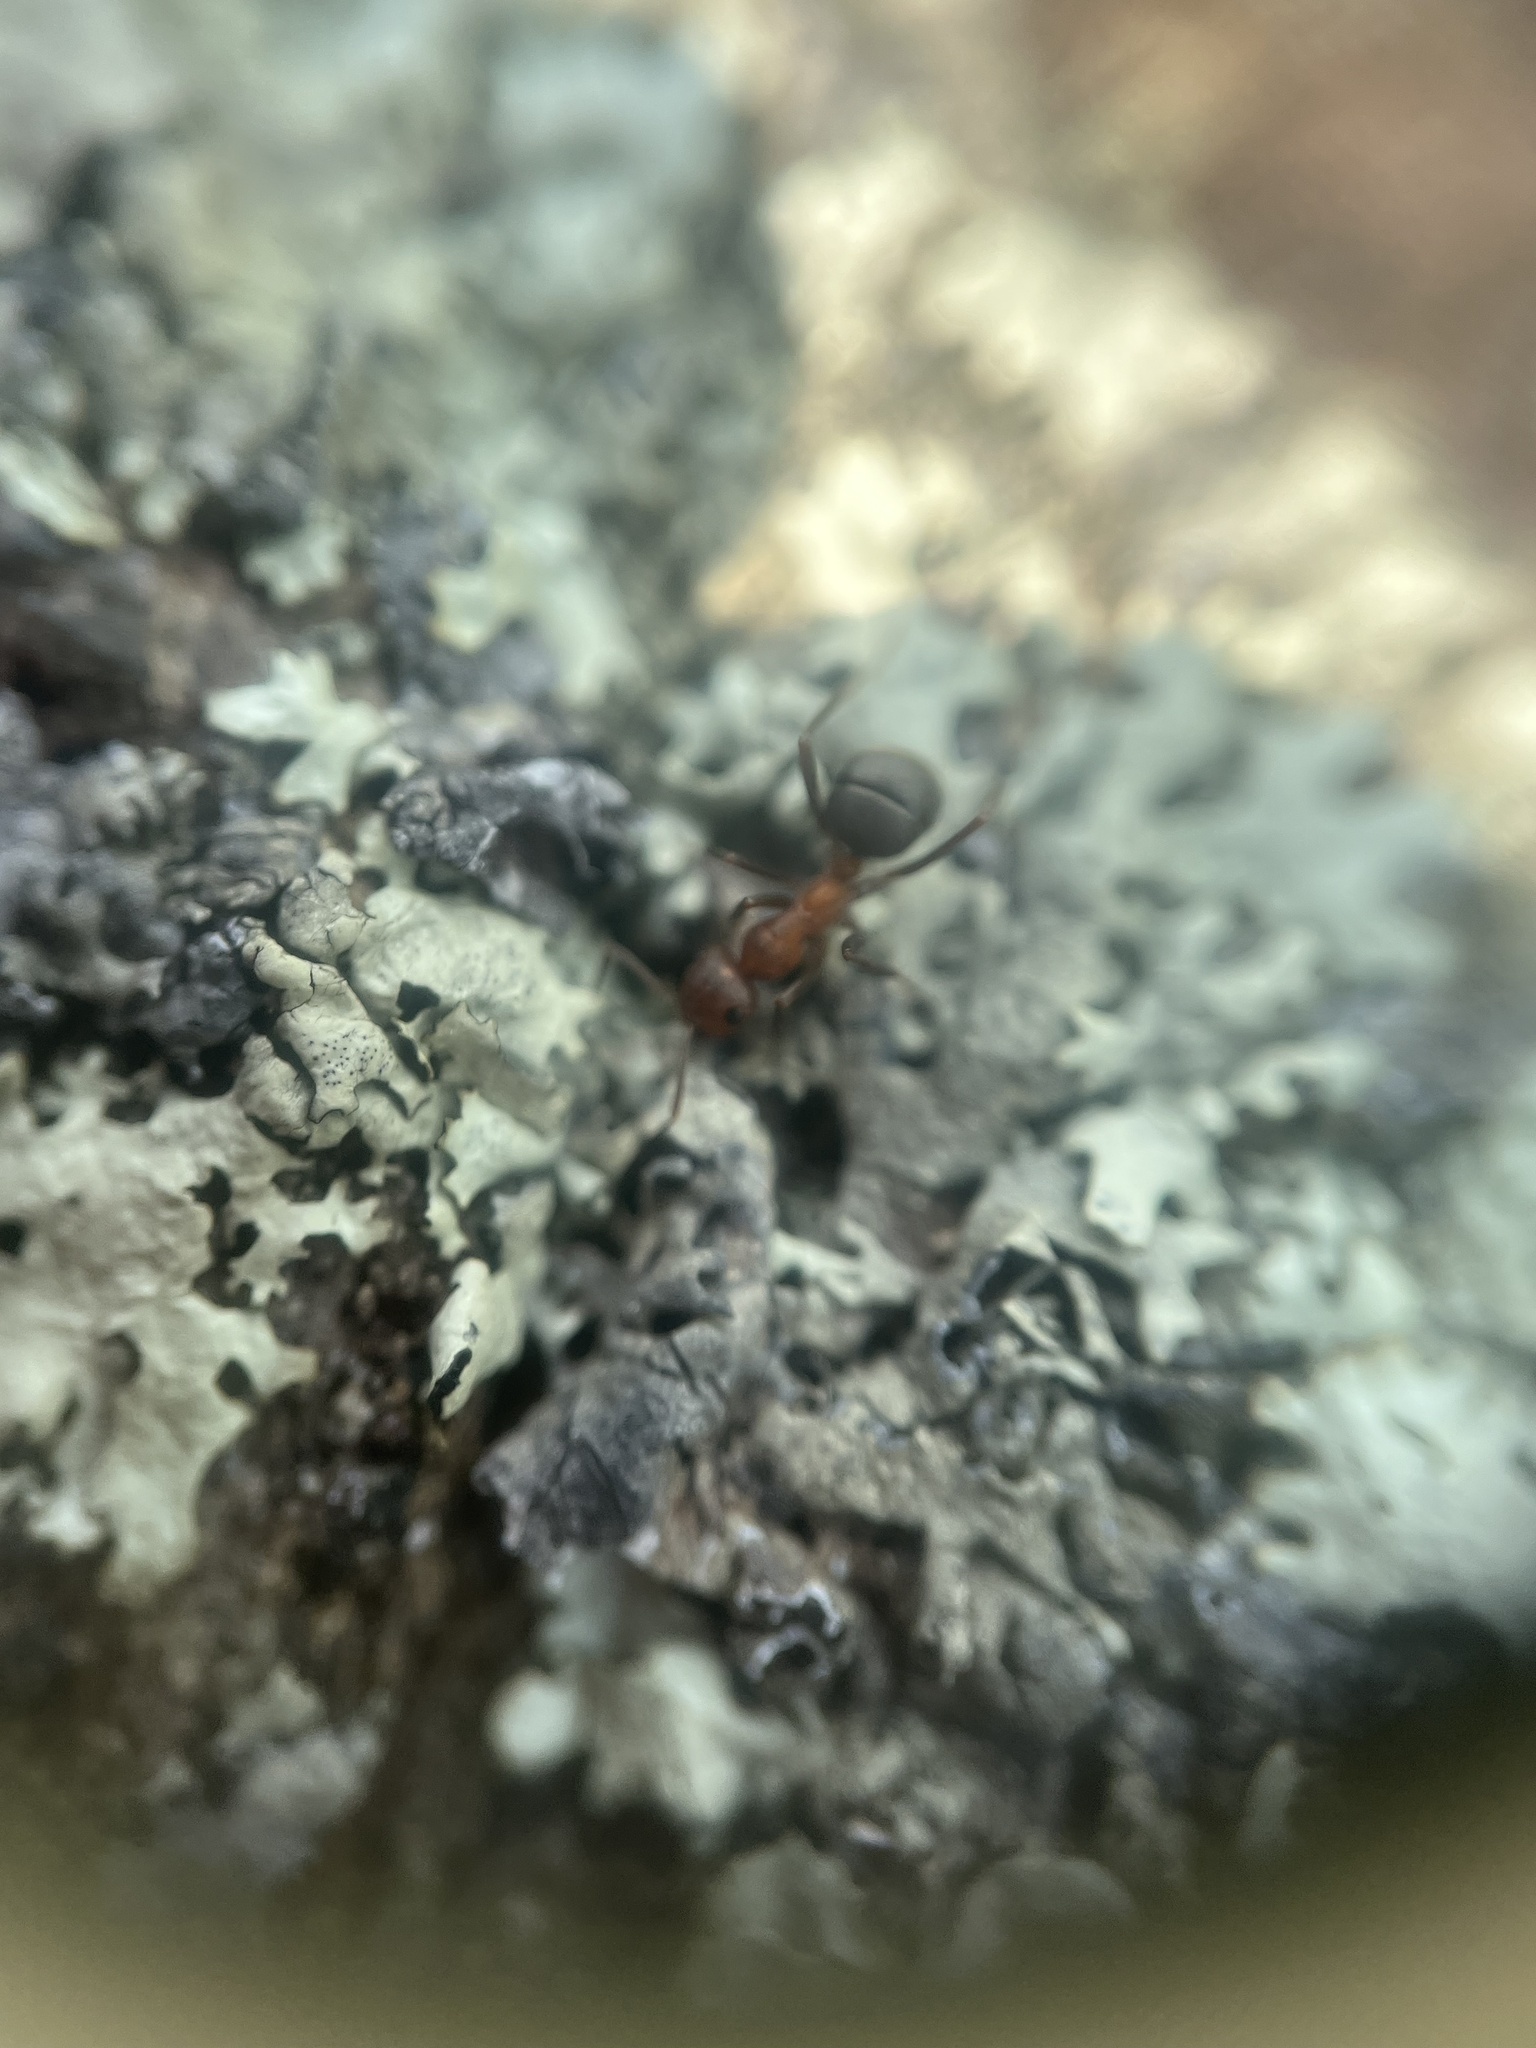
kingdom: Animalia
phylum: Arthropoda
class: Insecta
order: Hymenoptera
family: Formicidae
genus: Formica
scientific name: Formica
